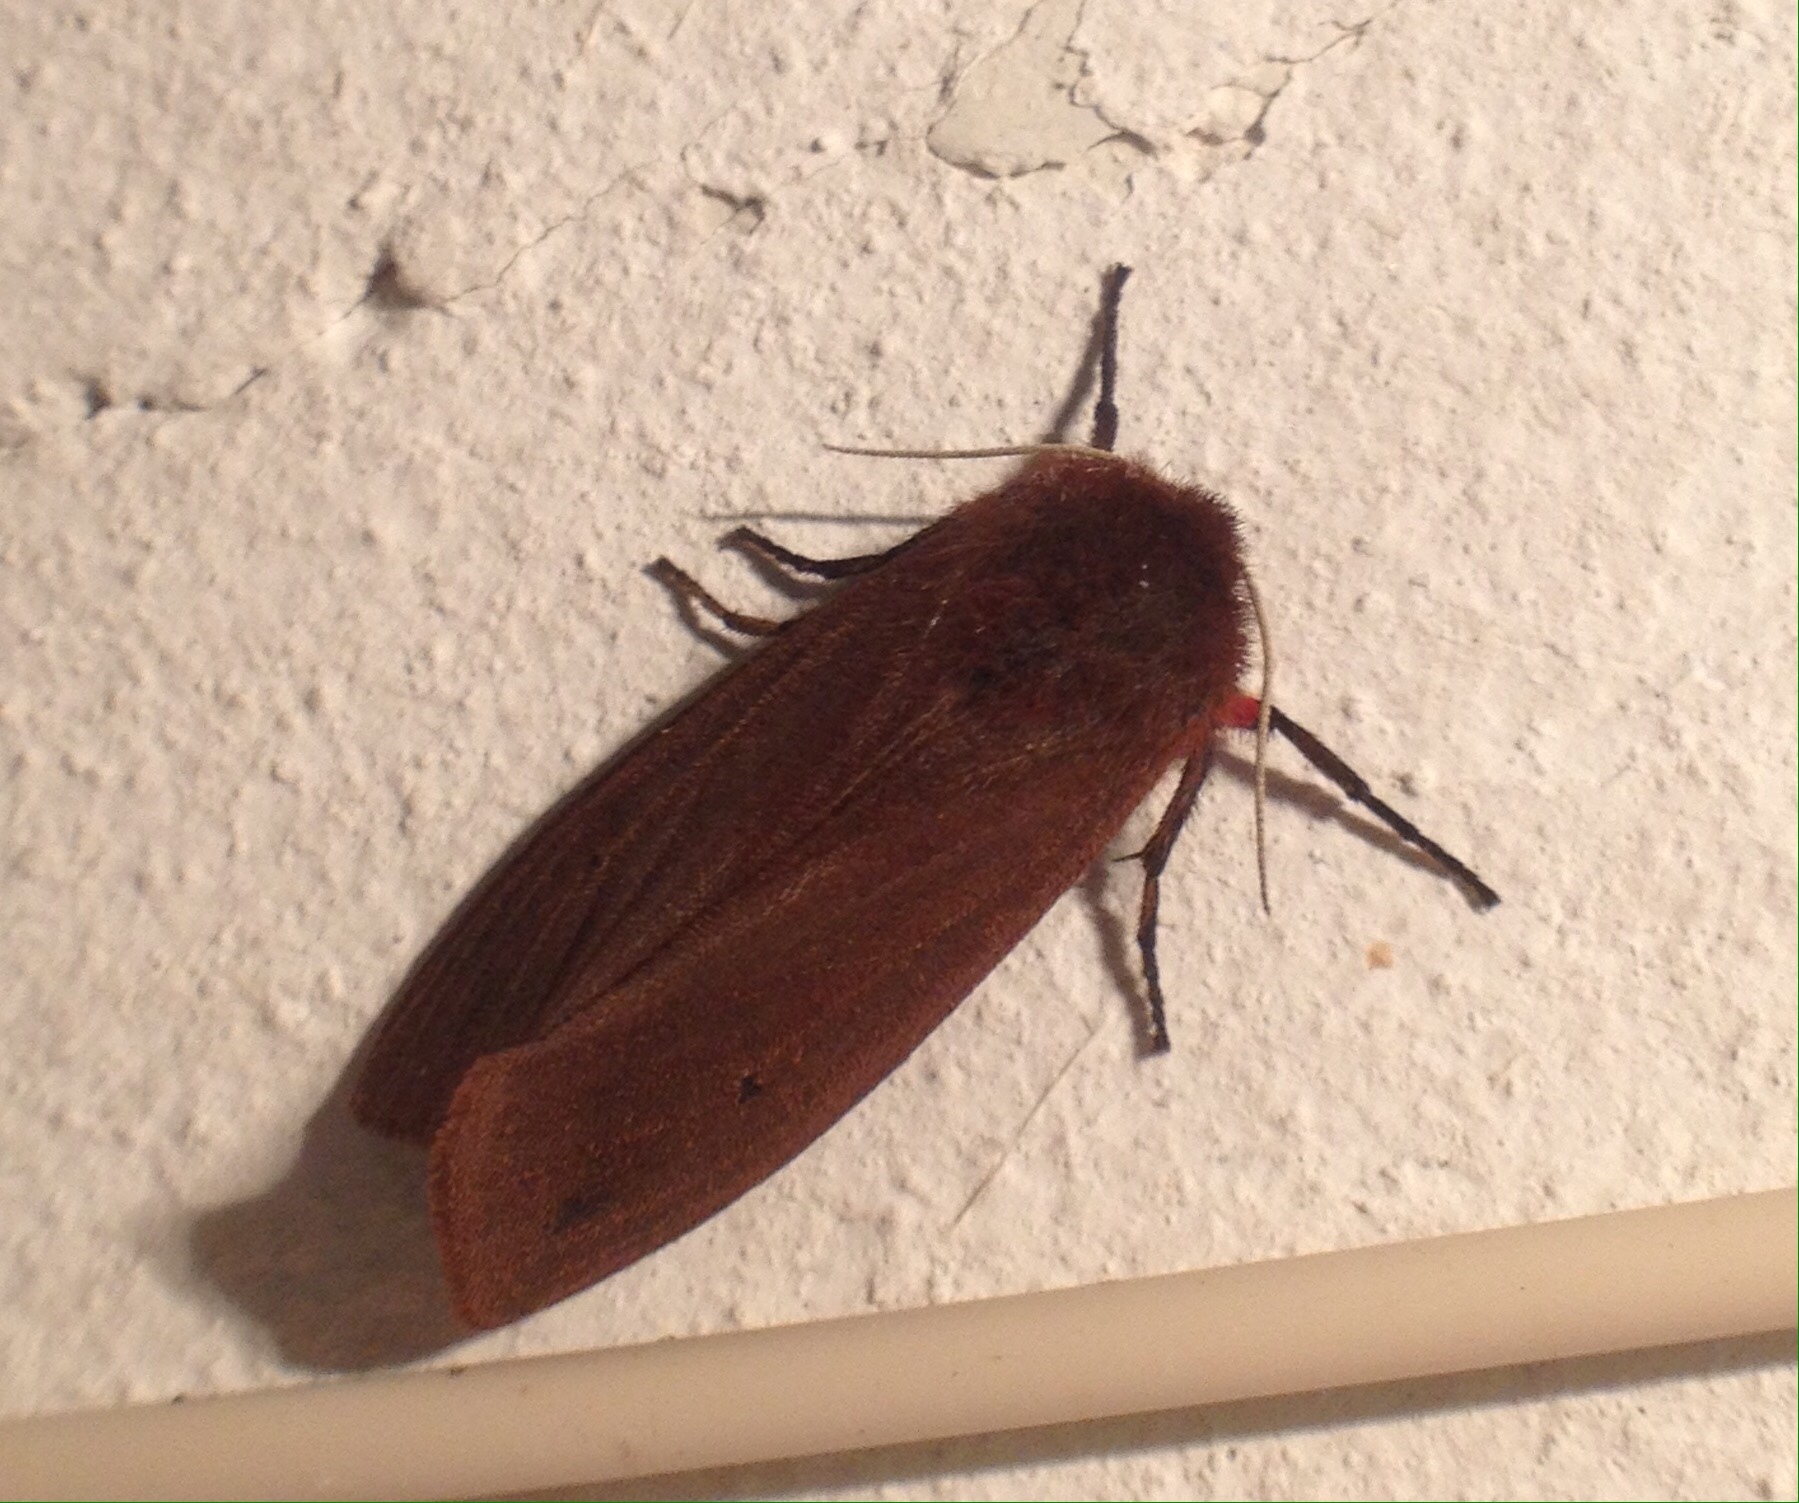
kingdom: Animalia
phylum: Arthropoda
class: Insecta
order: Lepidoptera
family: Erebidae
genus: Phragmatobia
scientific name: Phragmatobia fuliginosa
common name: Ruby tiger
